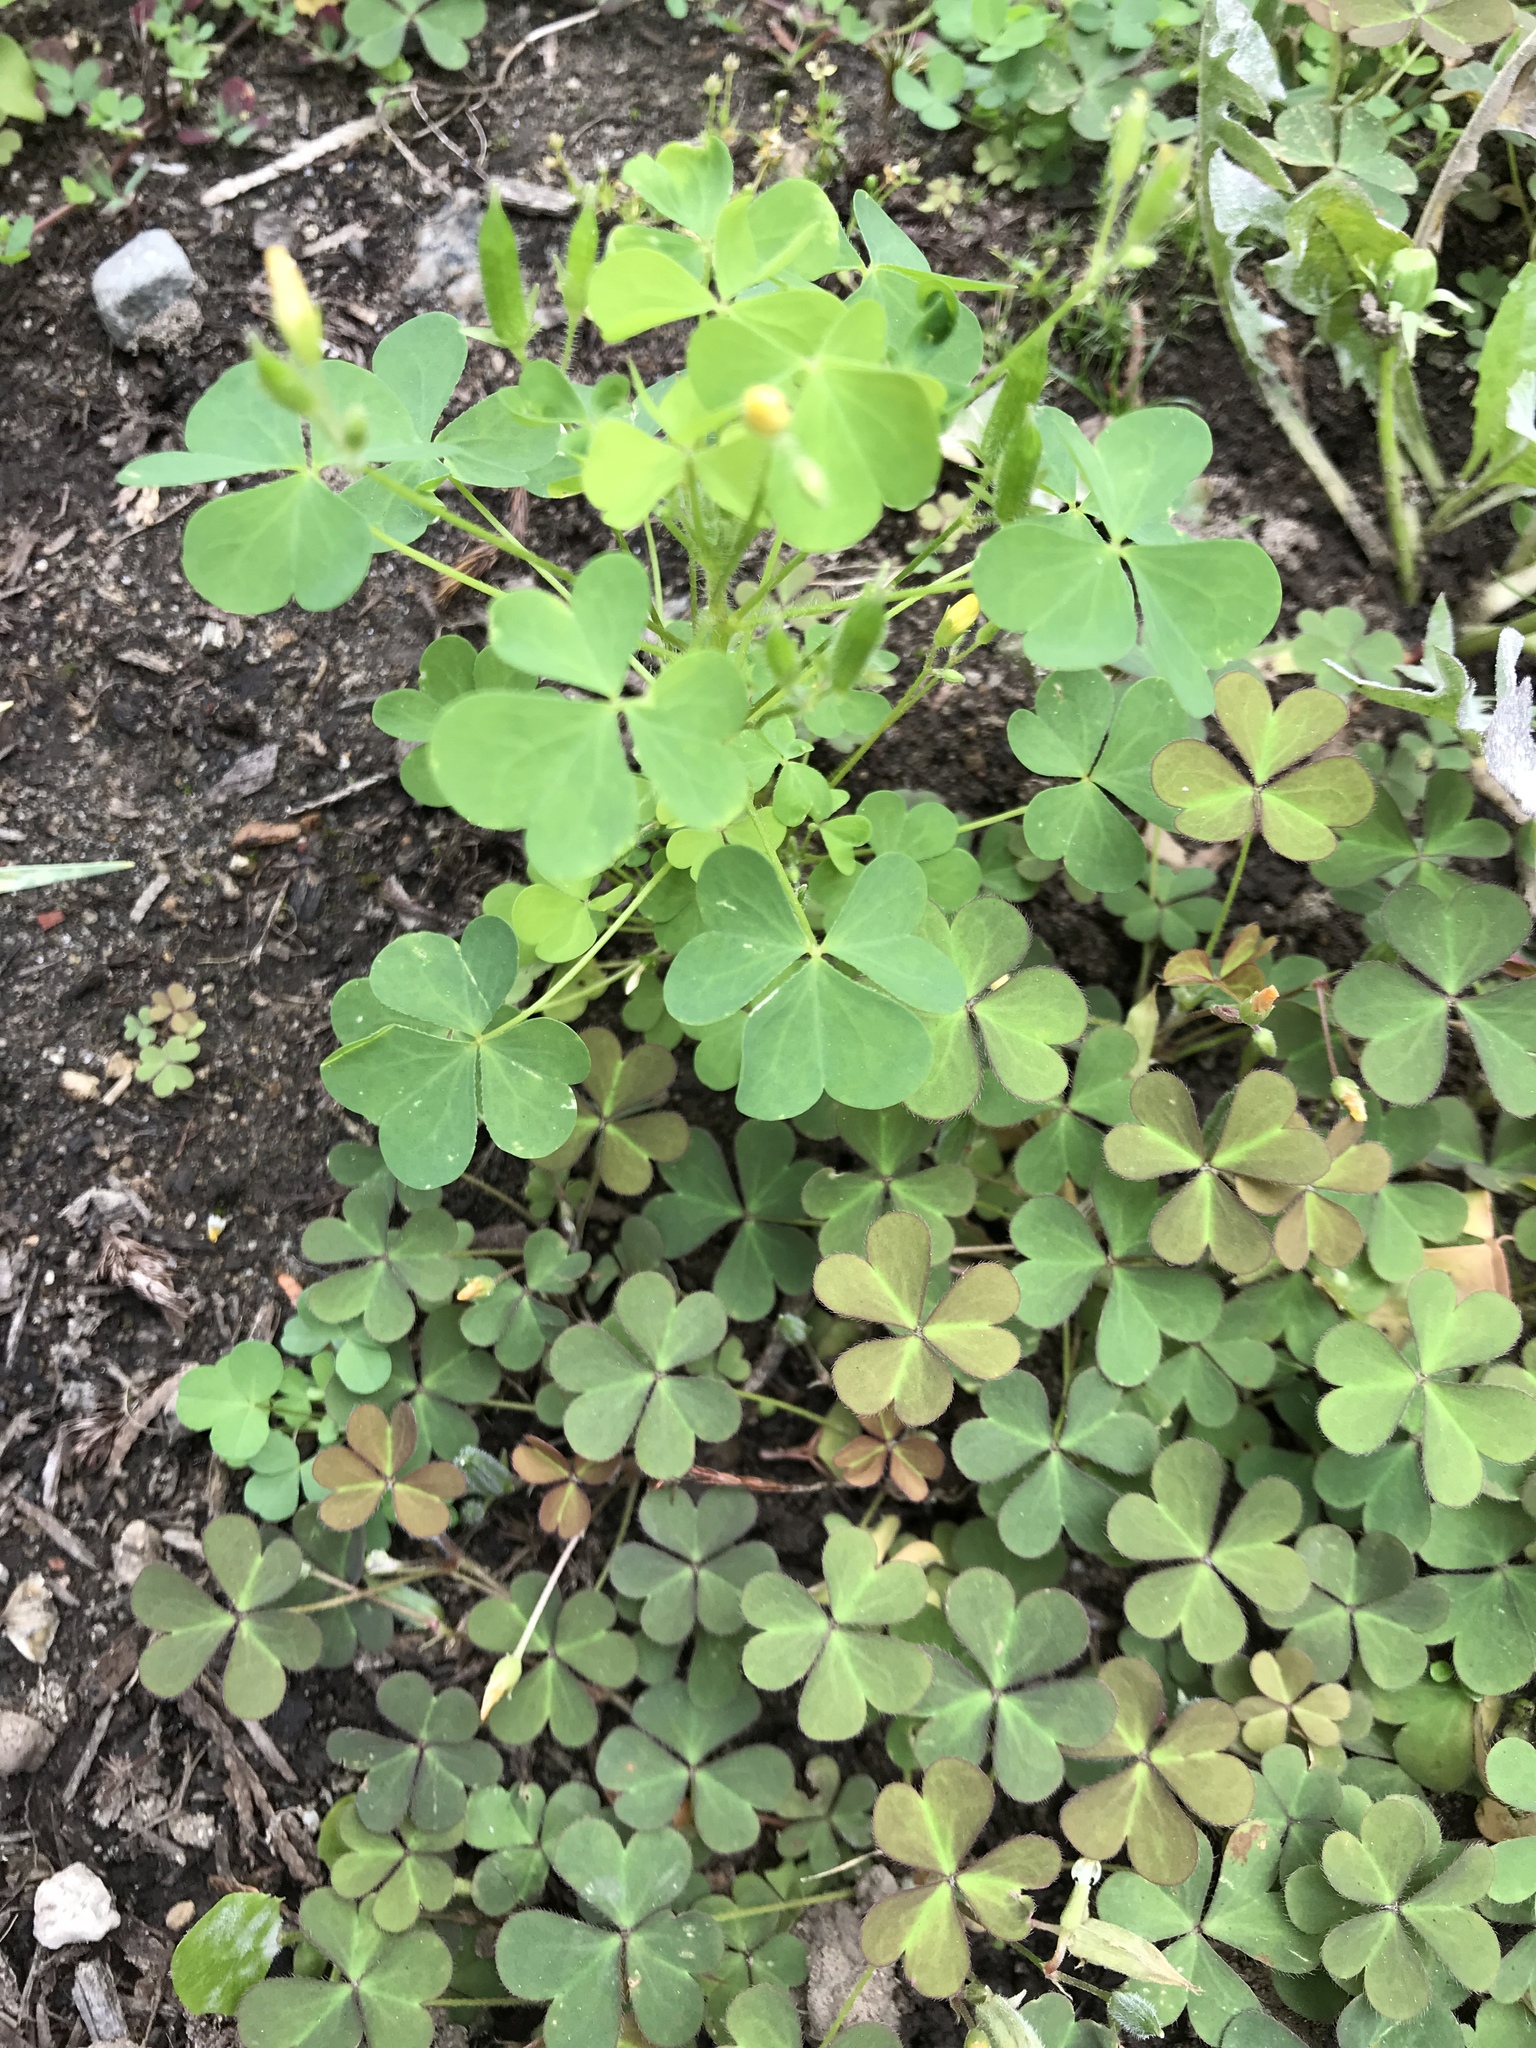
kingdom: Plantae
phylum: Tracheophyta
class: Magnoliopsida
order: Oxalidales
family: Oxalidaceae
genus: Oxalis
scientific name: Oxalis corniculata
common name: Procumbent yellow-sorrel
